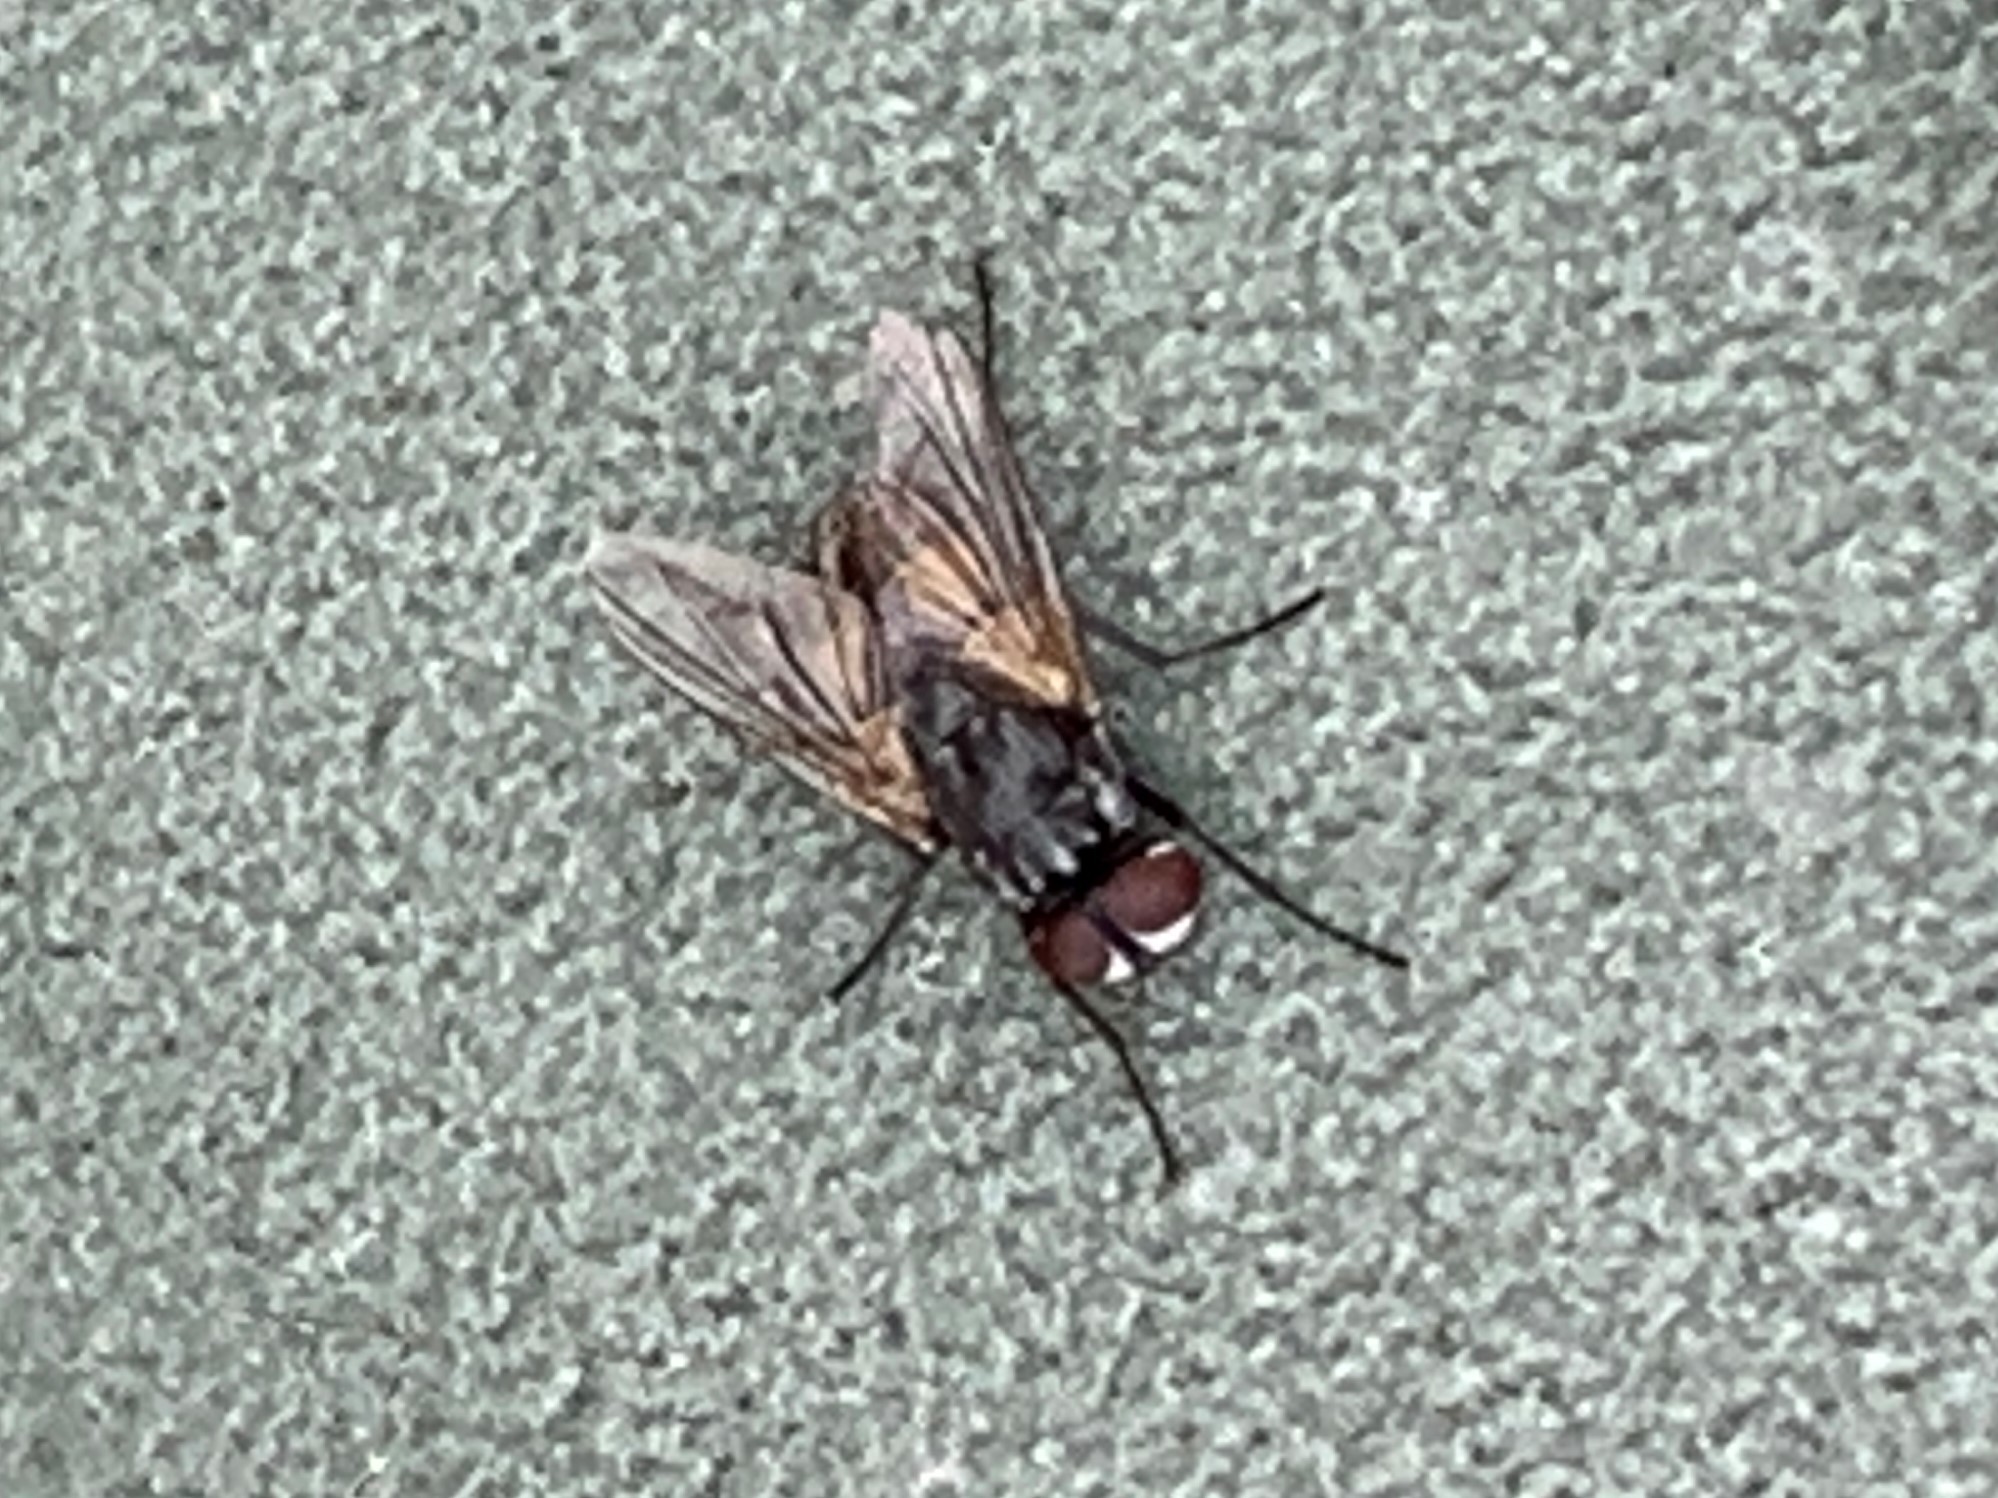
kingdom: Animalia
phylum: Arthropoda
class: Insecta
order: Diptera
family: Muscidae
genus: Musca
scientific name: Musca domestica
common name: House fly
